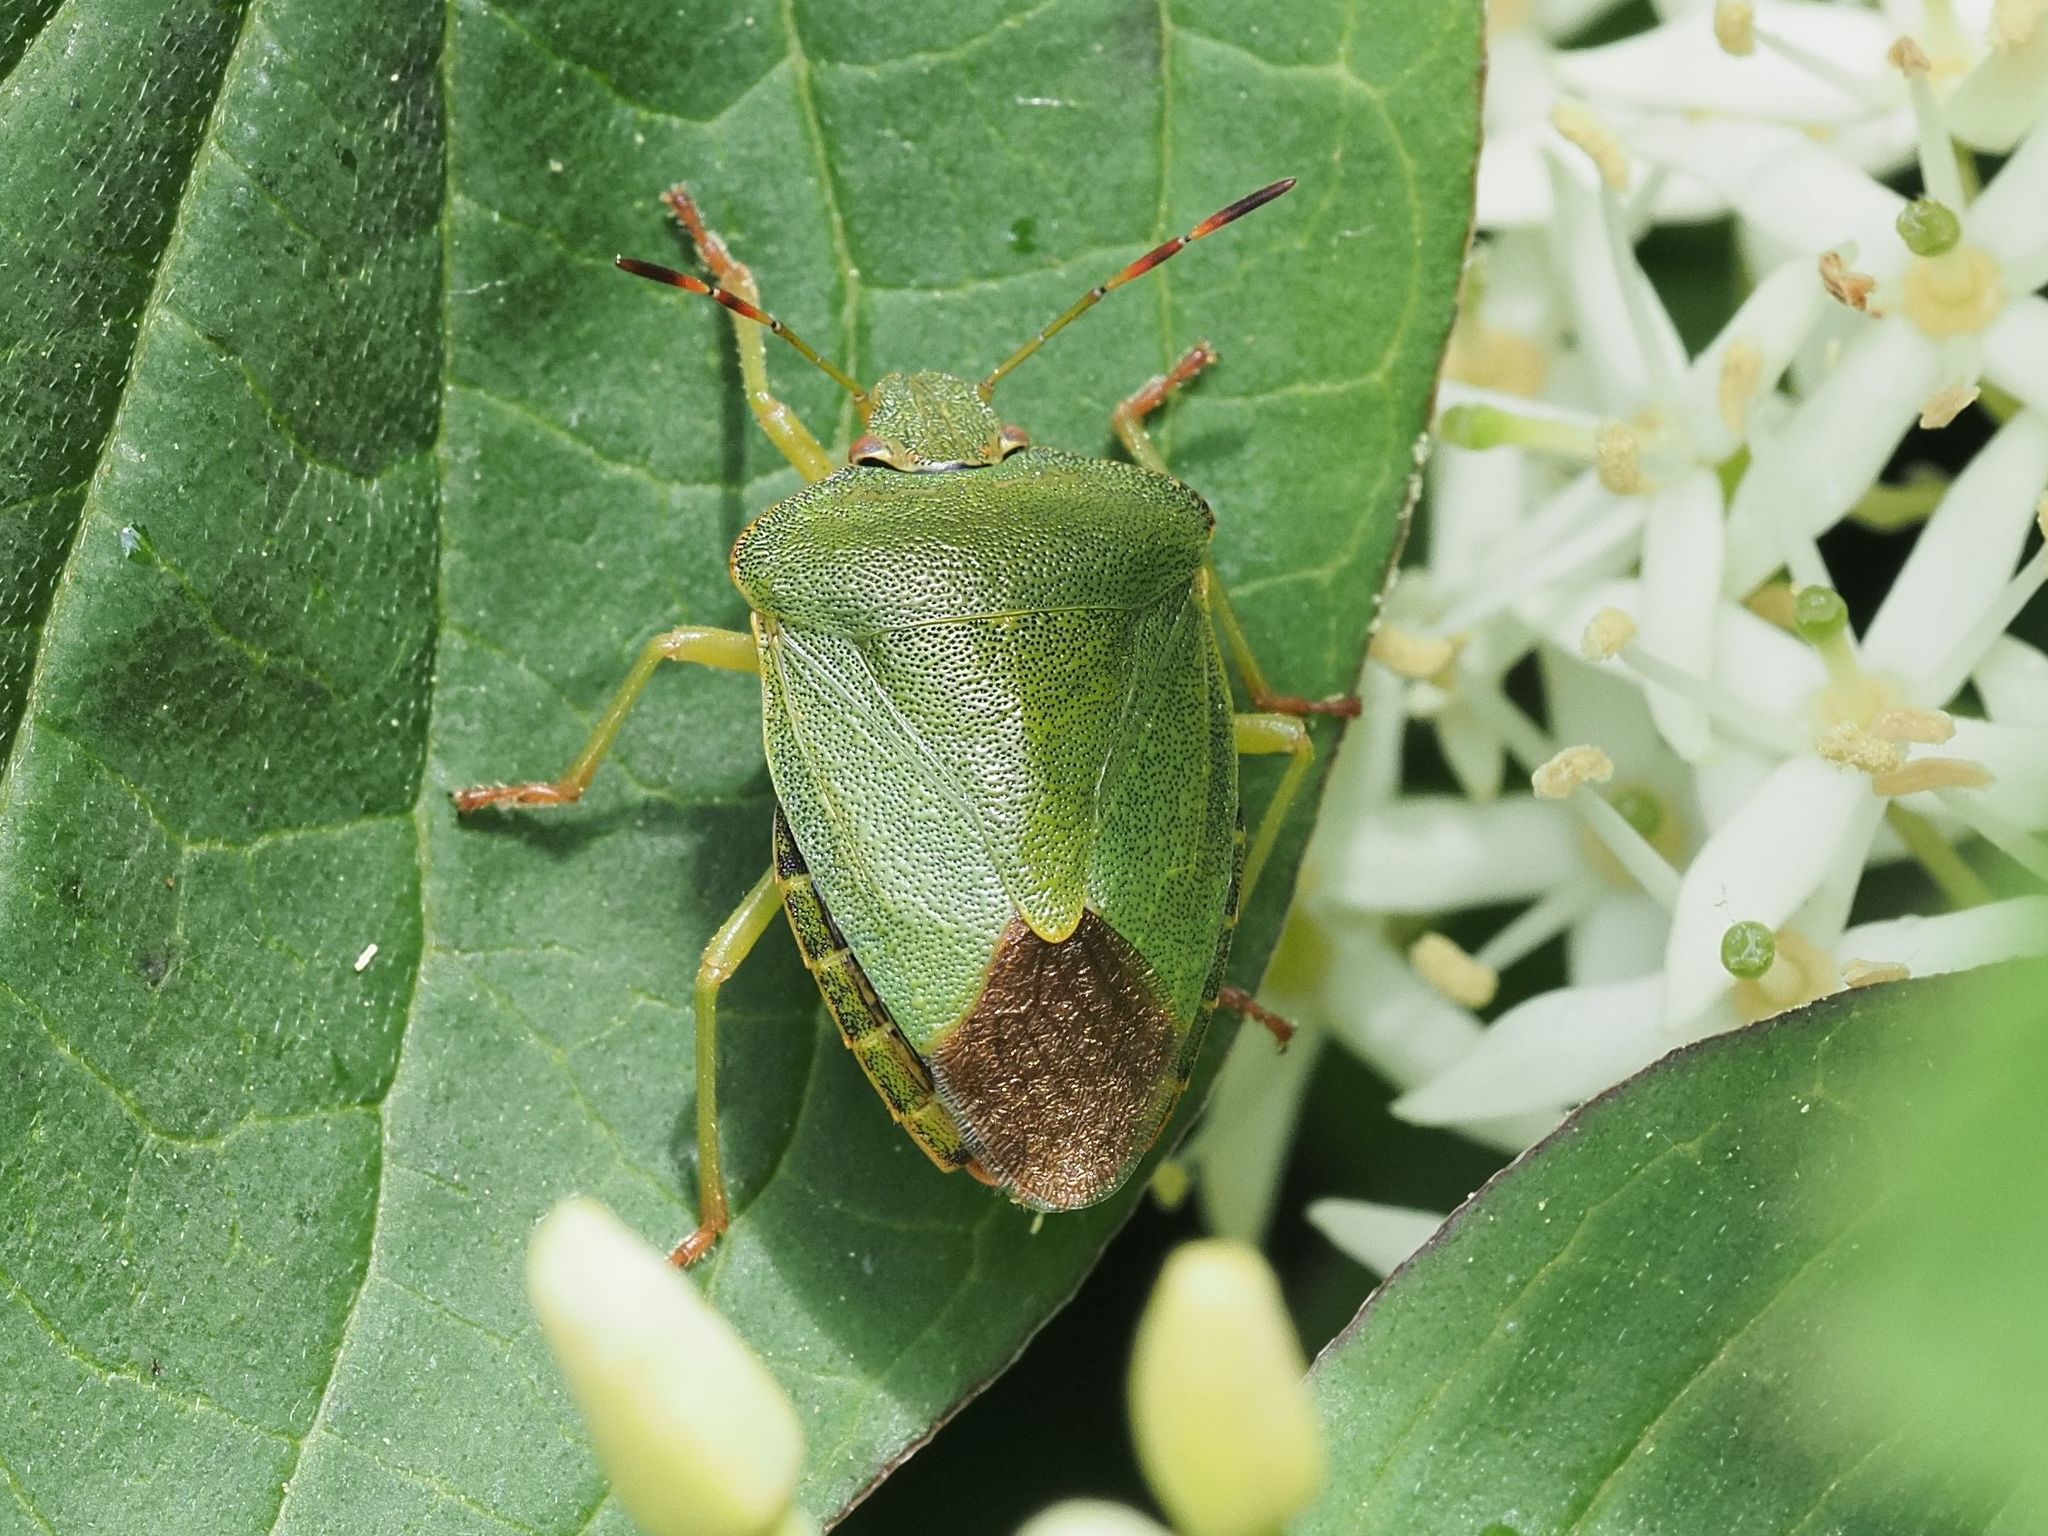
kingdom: Animalia
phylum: Arthropoda
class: Insecta
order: Hemiptera
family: Pentatomidae
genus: Palomena
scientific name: Palomena prasina
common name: Green shieldbug
